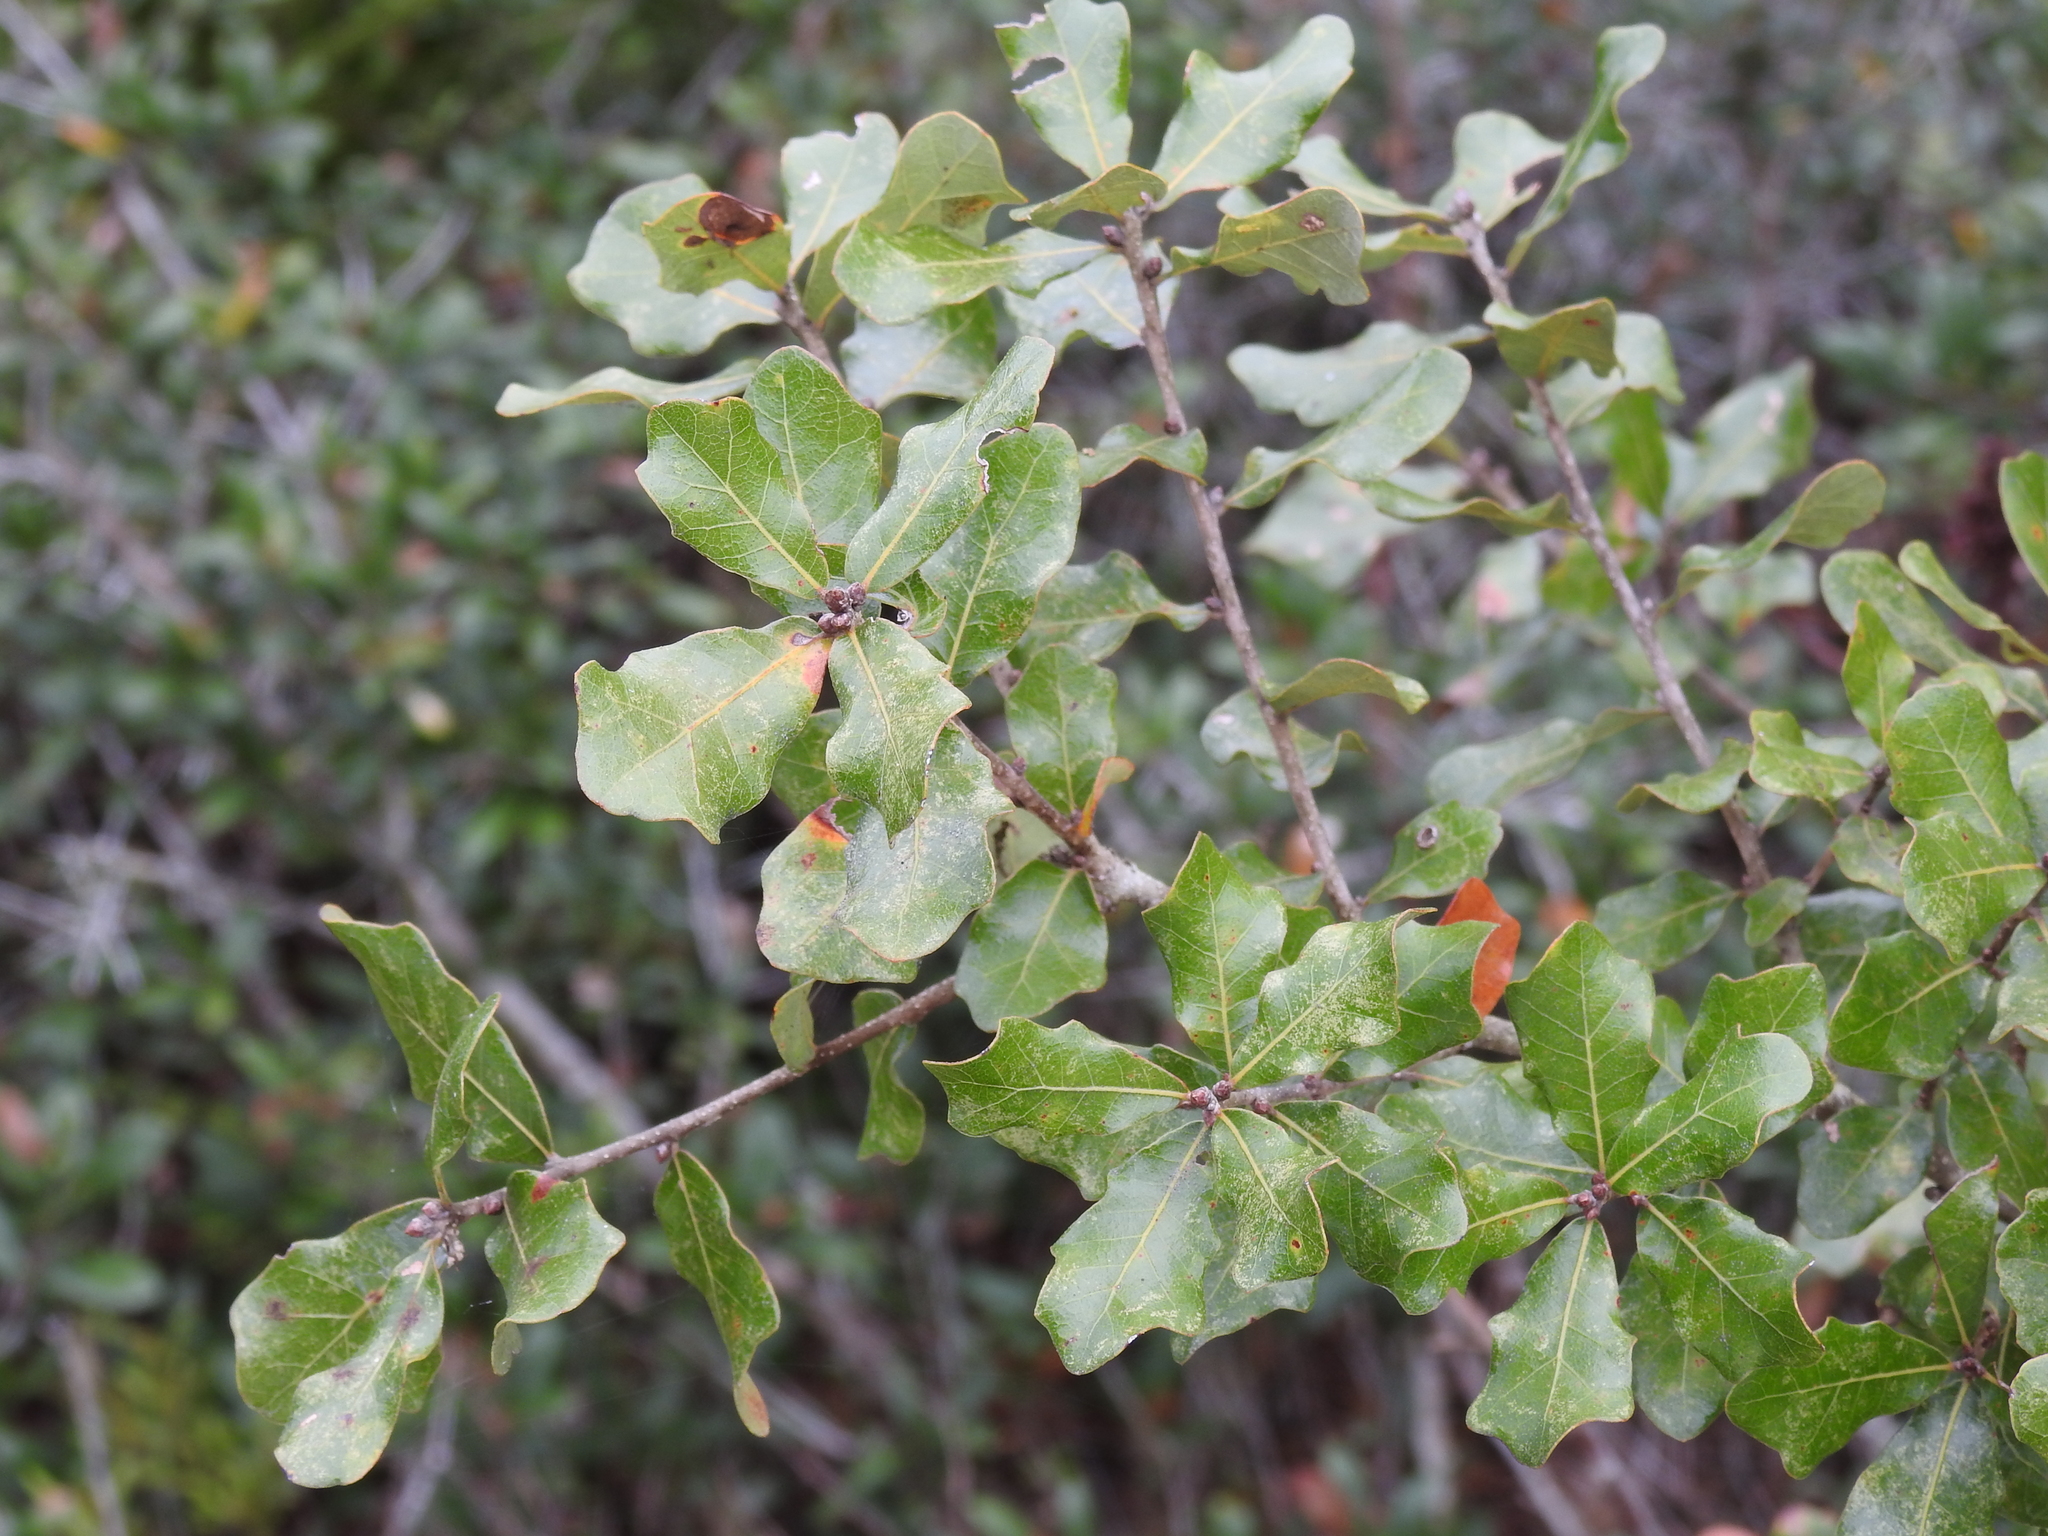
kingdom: Plantae
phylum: Tracheophyta
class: Magnoliopsida
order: Fagales
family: Fagaceae
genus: Quercus
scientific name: Quercus chapmanii
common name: Chapman oak
